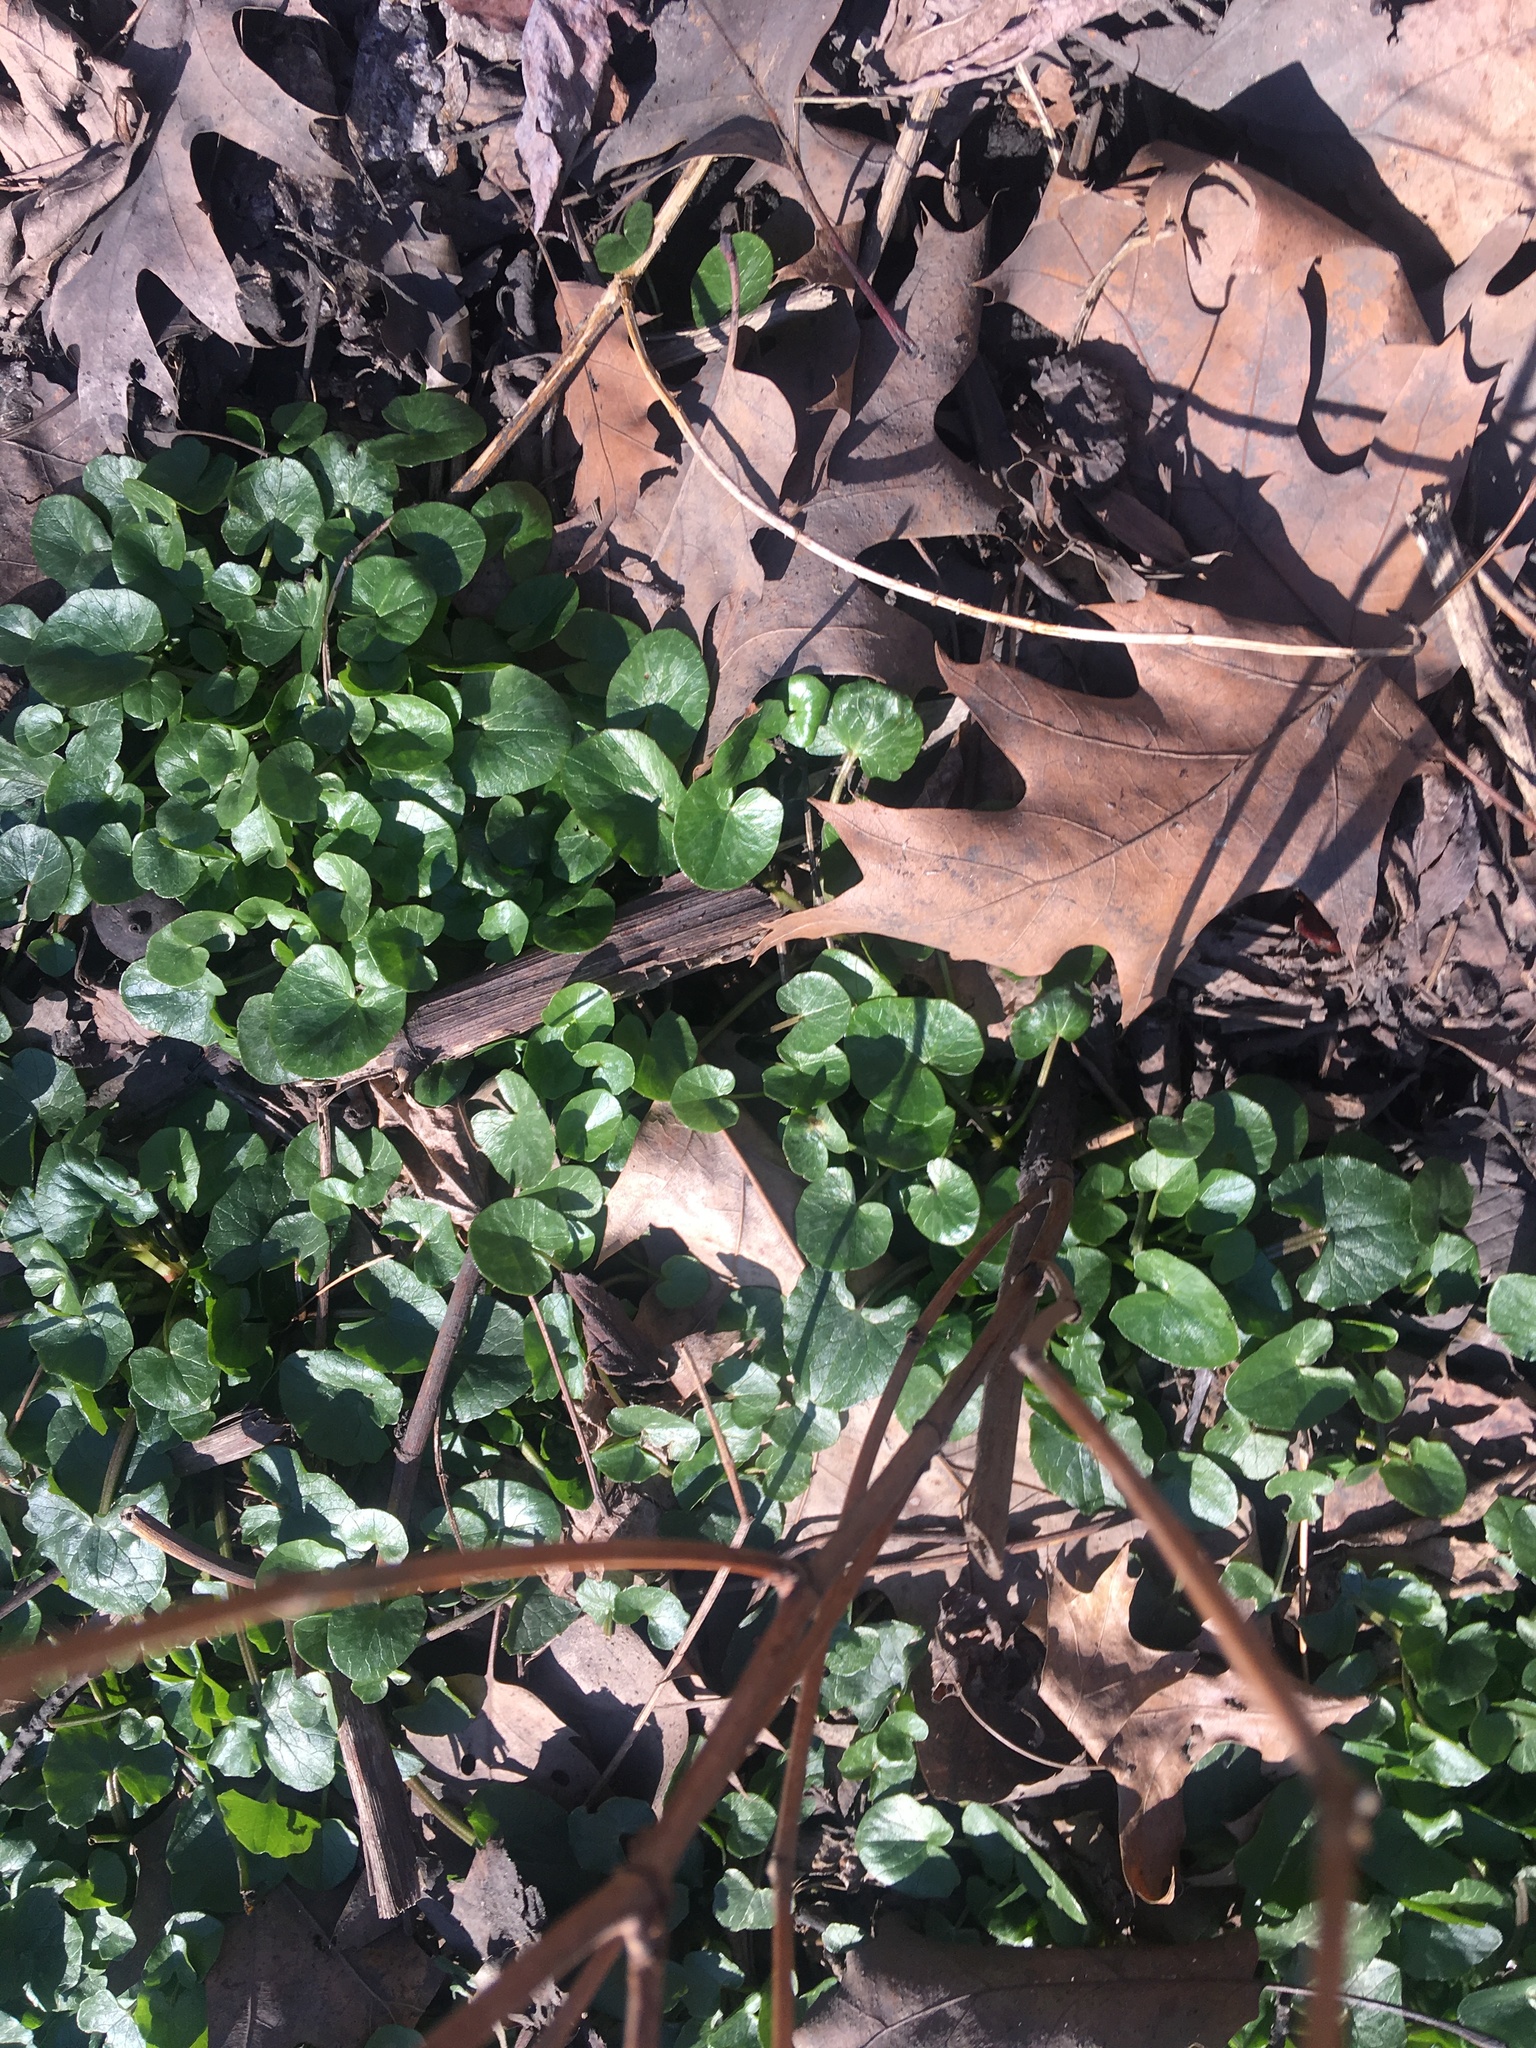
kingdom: Plantae
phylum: Tracheophyta
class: Magnoliopsida
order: Ranunculales
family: Ranunculaceae
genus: Ficaria
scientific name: Ficaria verna
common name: Lesser celandine
